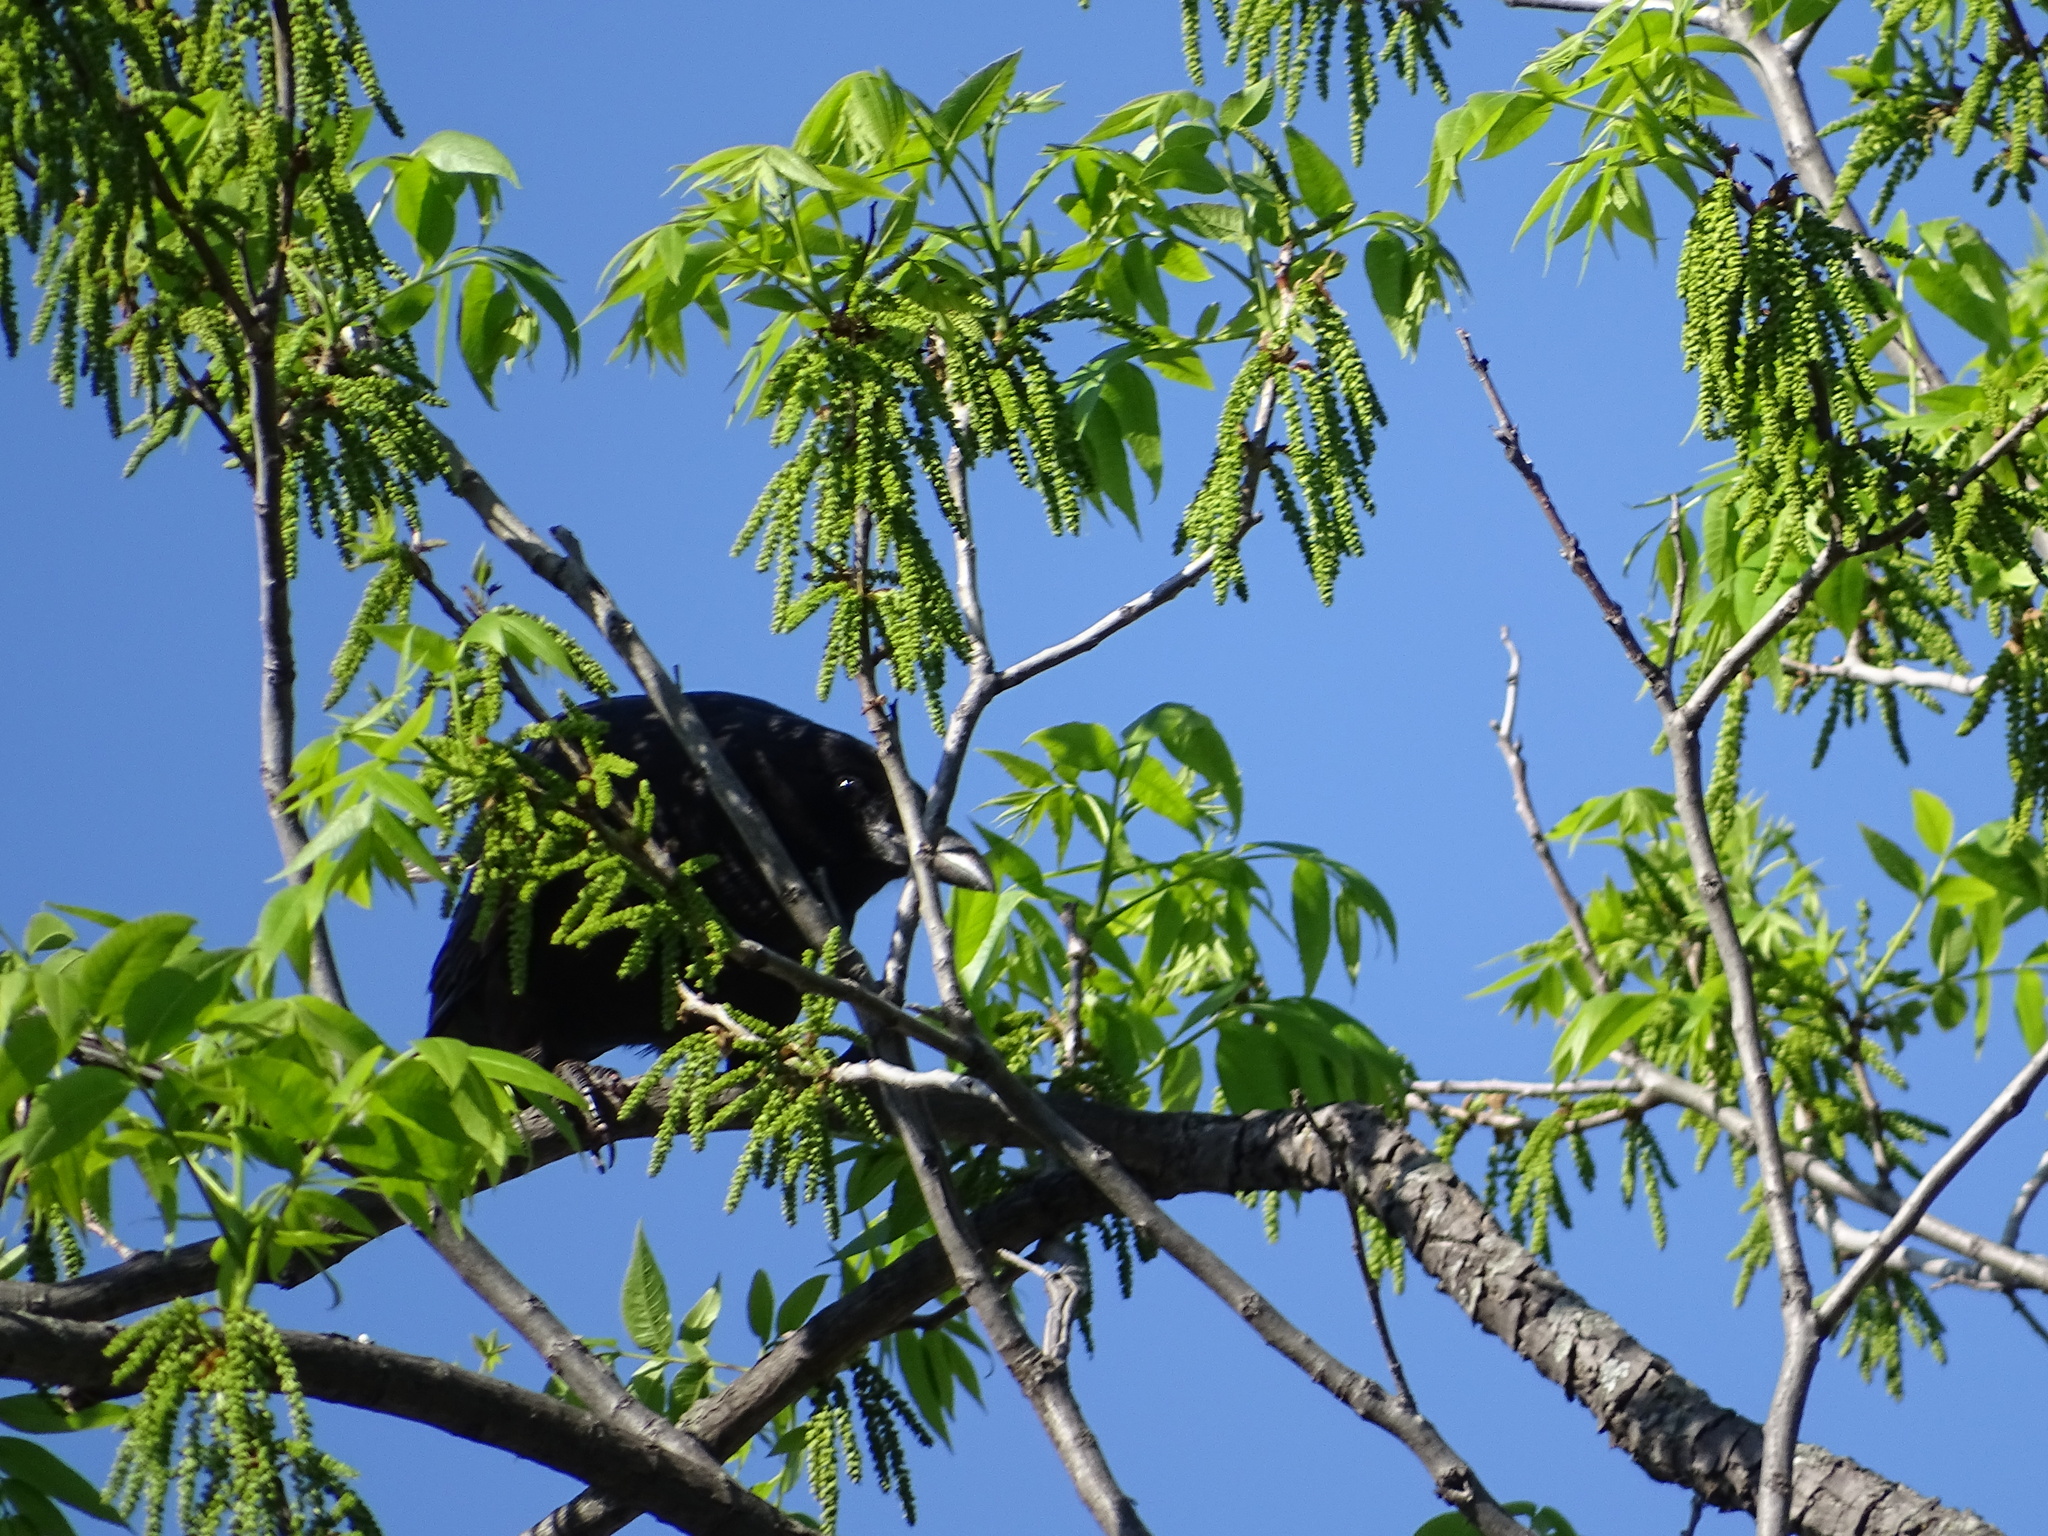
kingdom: Animalia
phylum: Chordata
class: Aves
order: Passeriformes
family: Corvidae
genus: Corvus
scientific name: Corvus brachyrhynchos
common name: American crow
